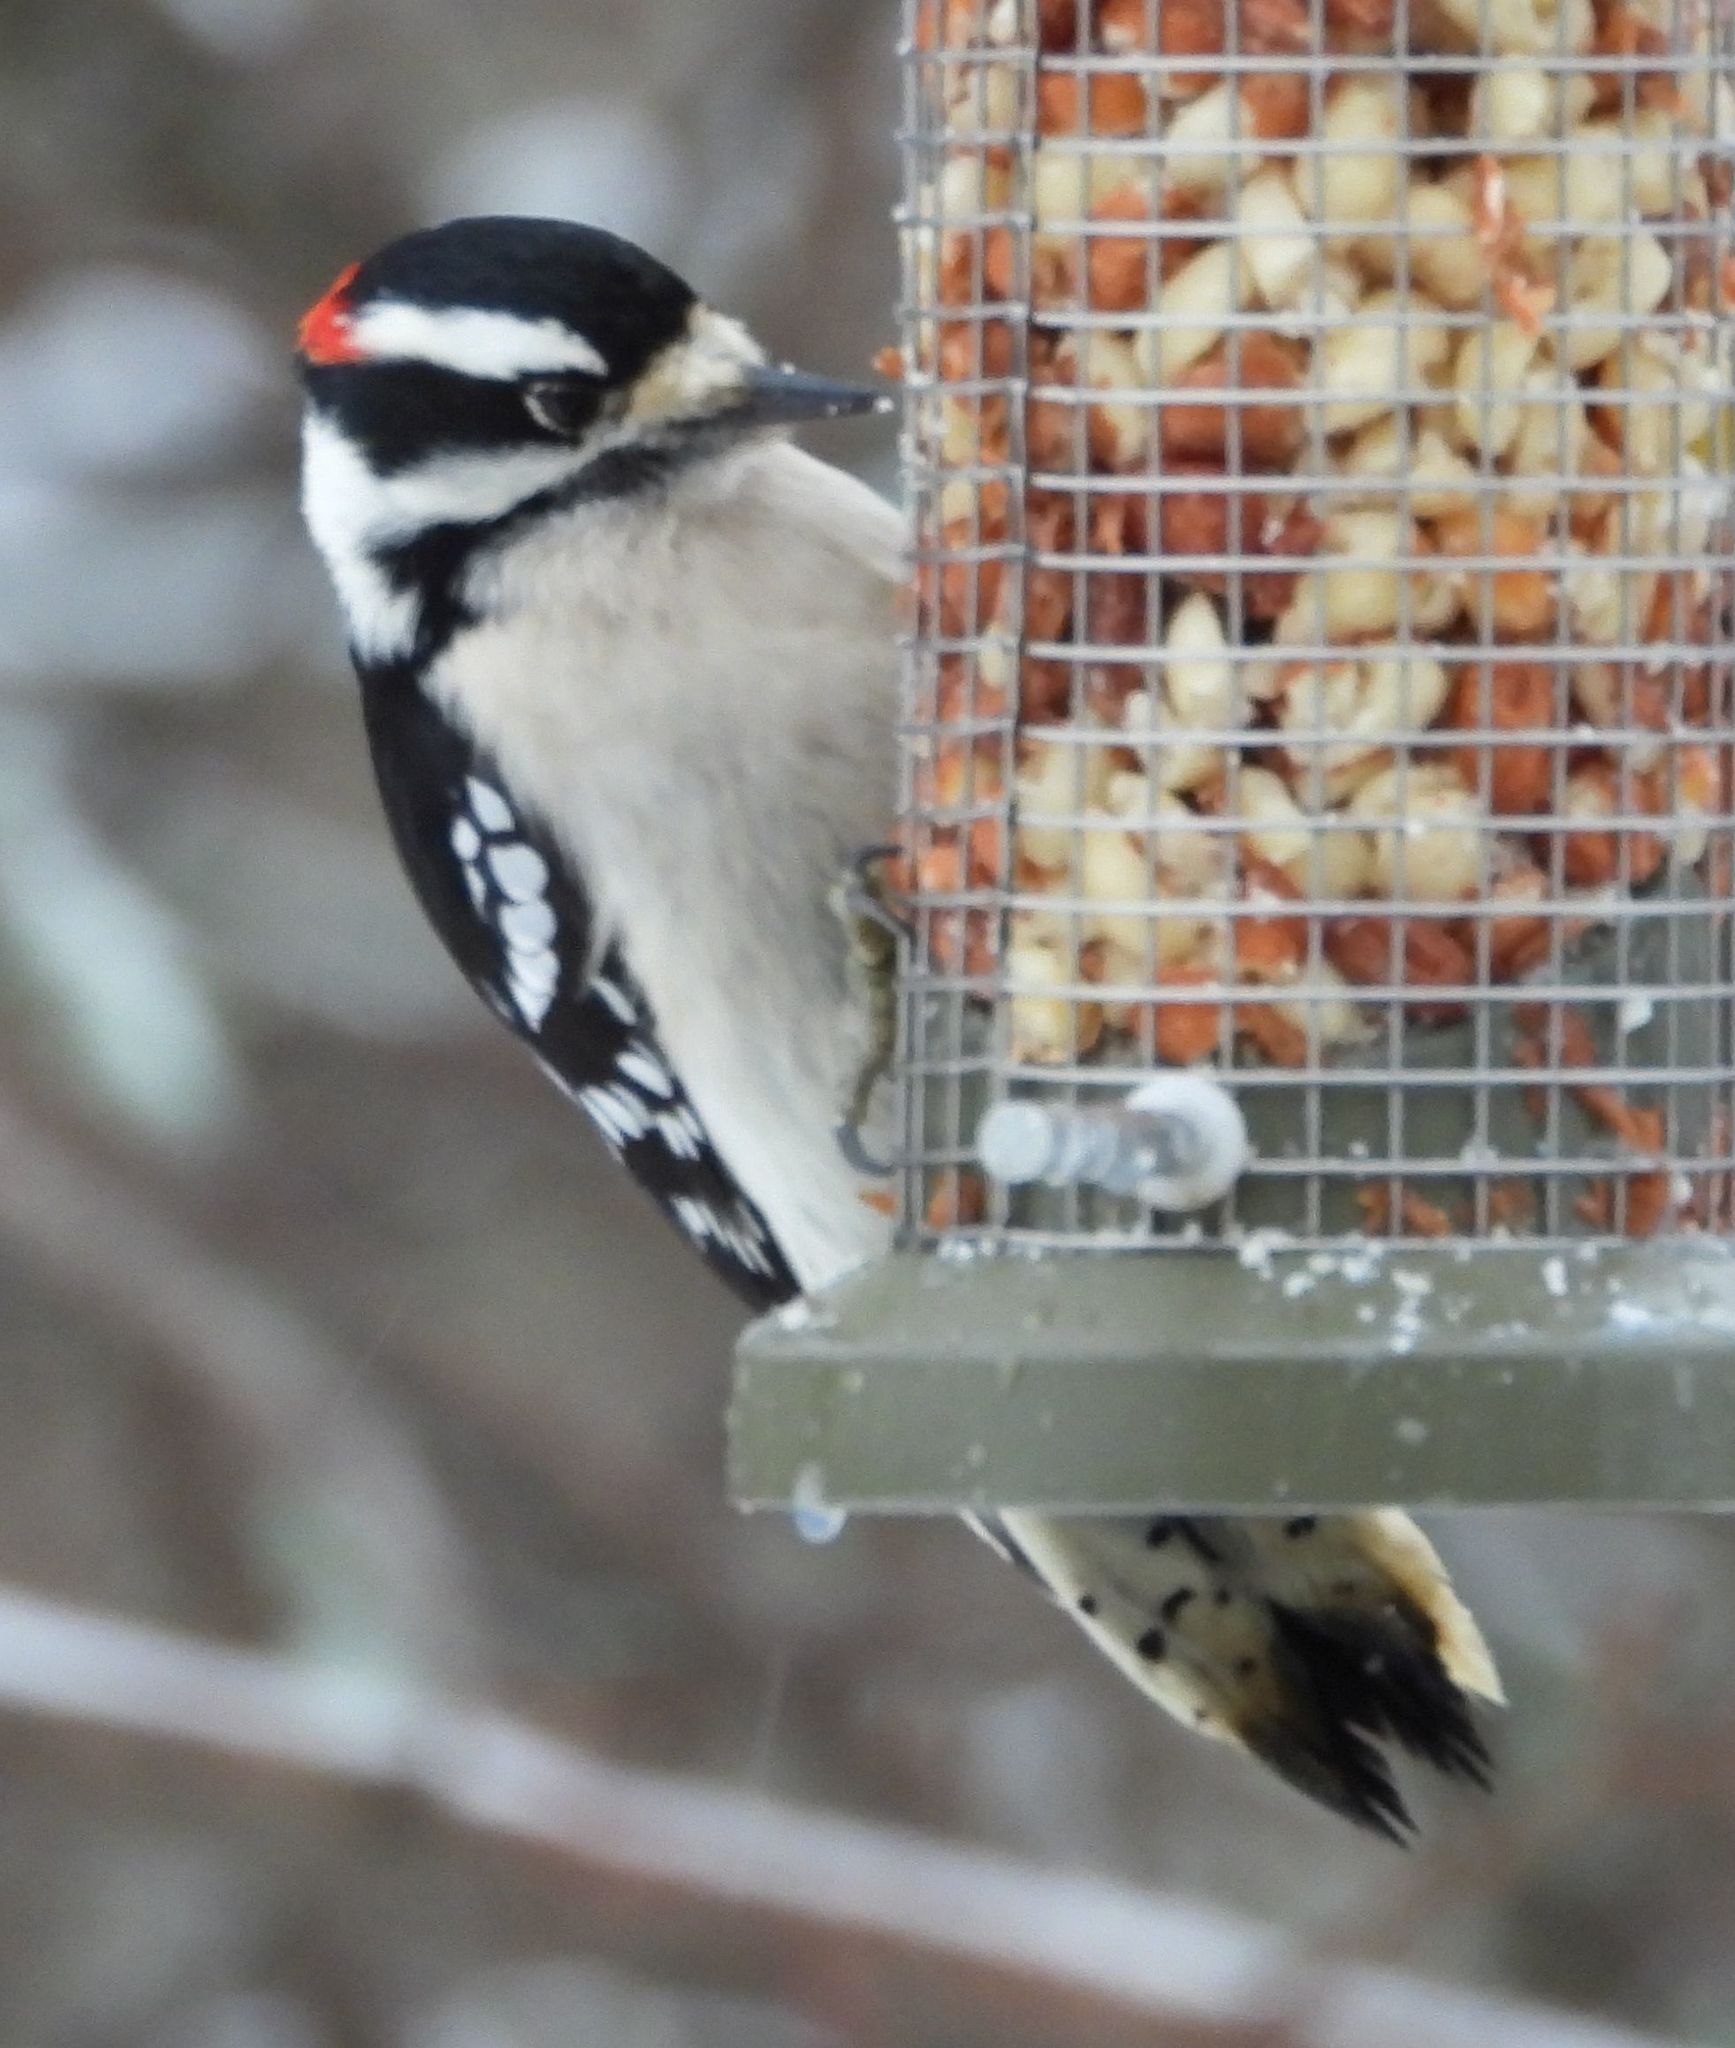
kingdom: Animalia
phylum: Chordata
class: Aves
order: Piciformes
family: Picidae
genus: Dryobates
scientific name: Dryobates pubescens
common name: Downy woodpecker
